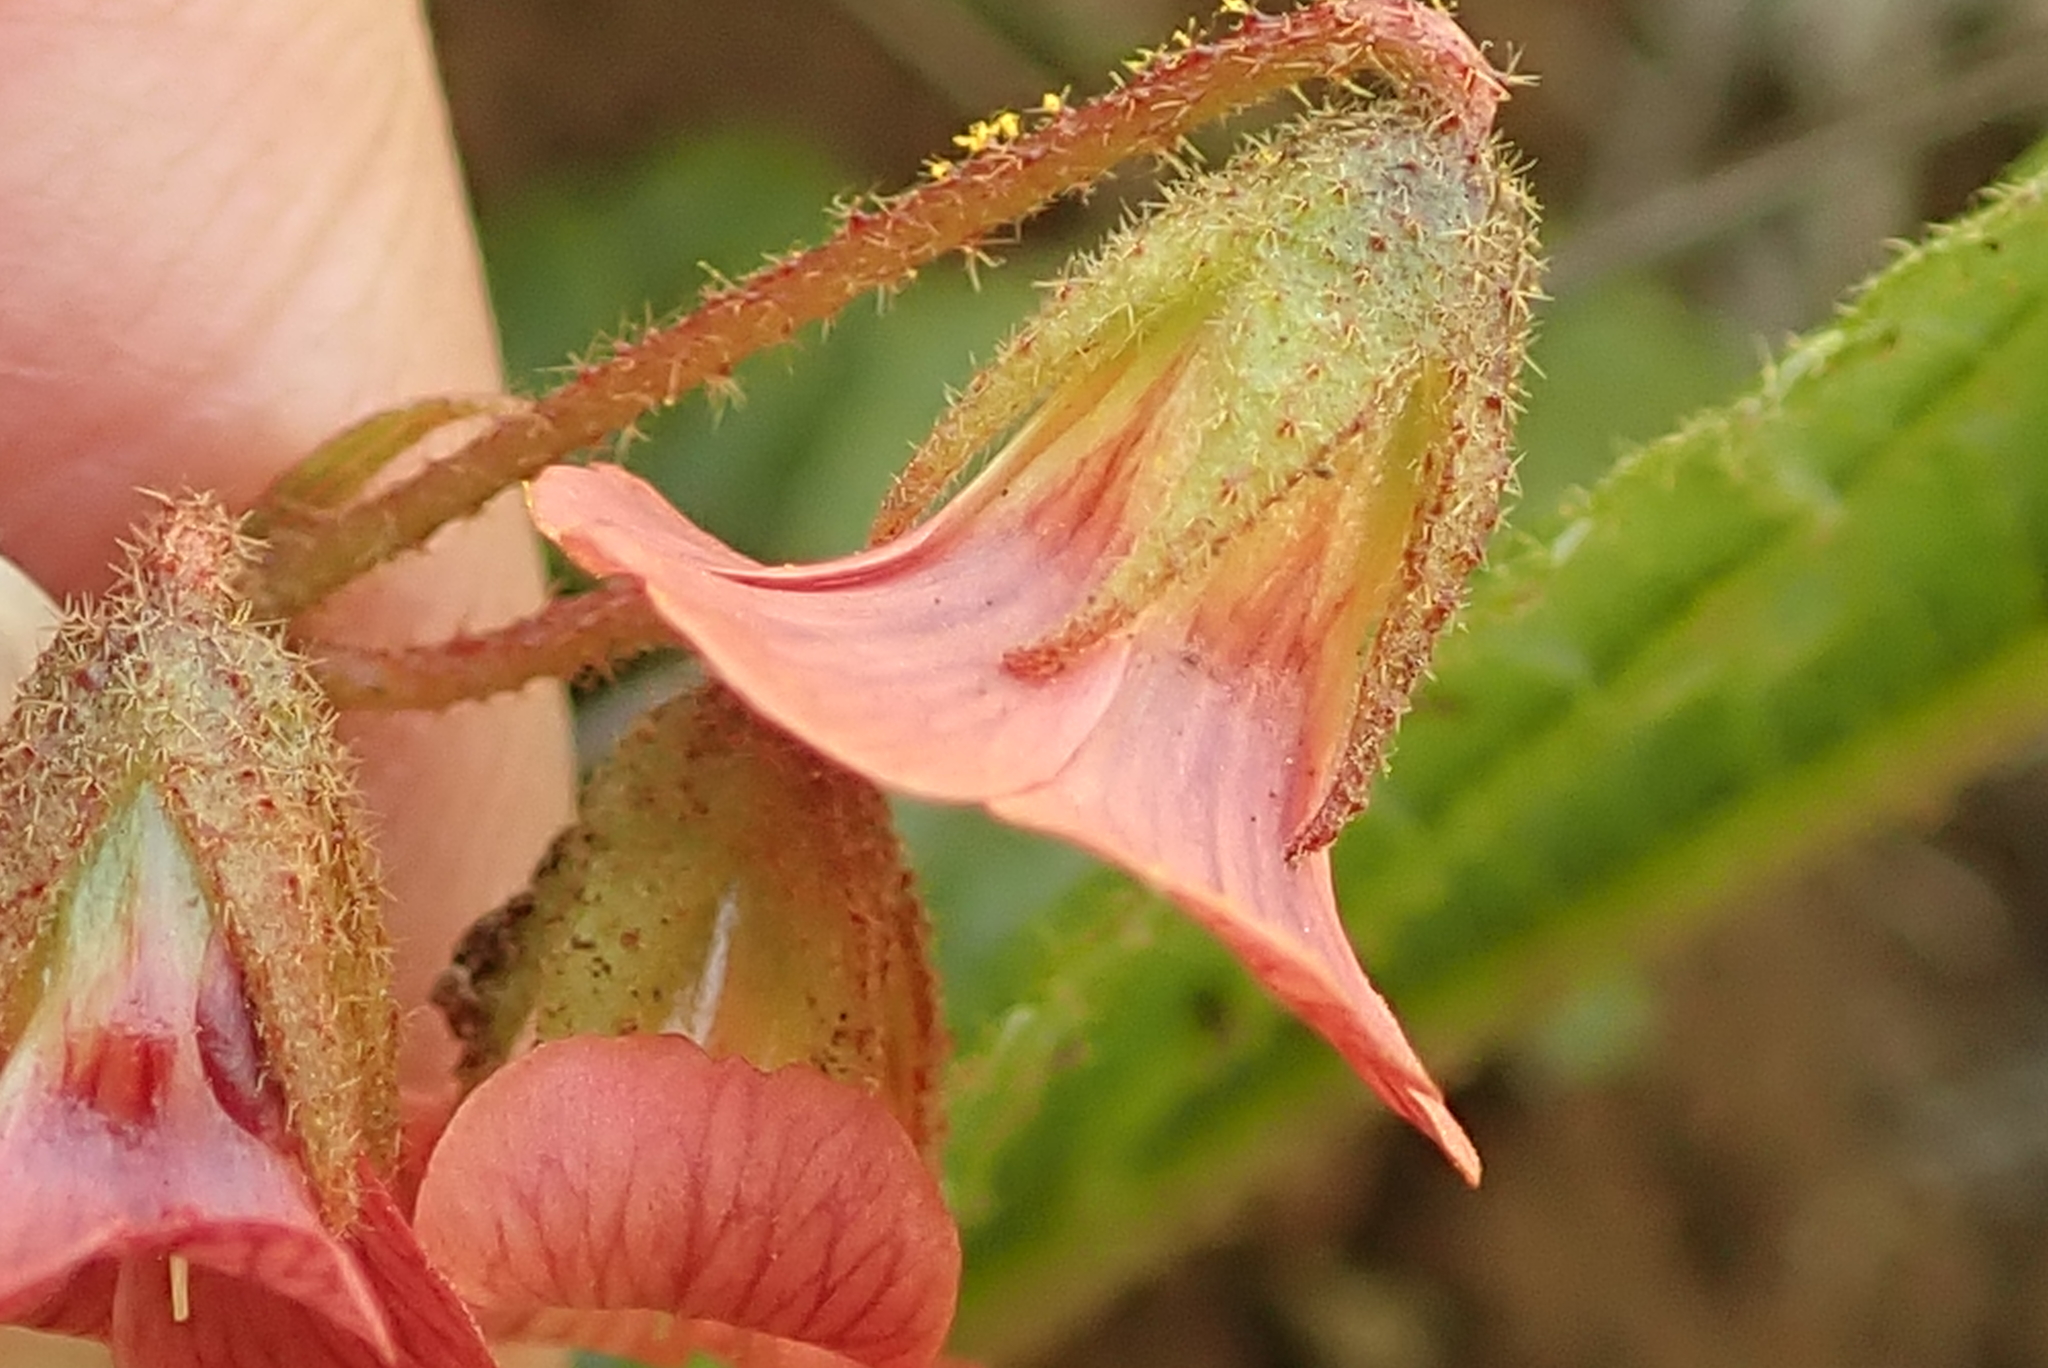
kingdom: Plantae
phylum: Tracheophyta
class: Magnoliopsida
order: Malvales
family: Malvaceae
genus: Hermannia
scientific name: Hermannia depressa
